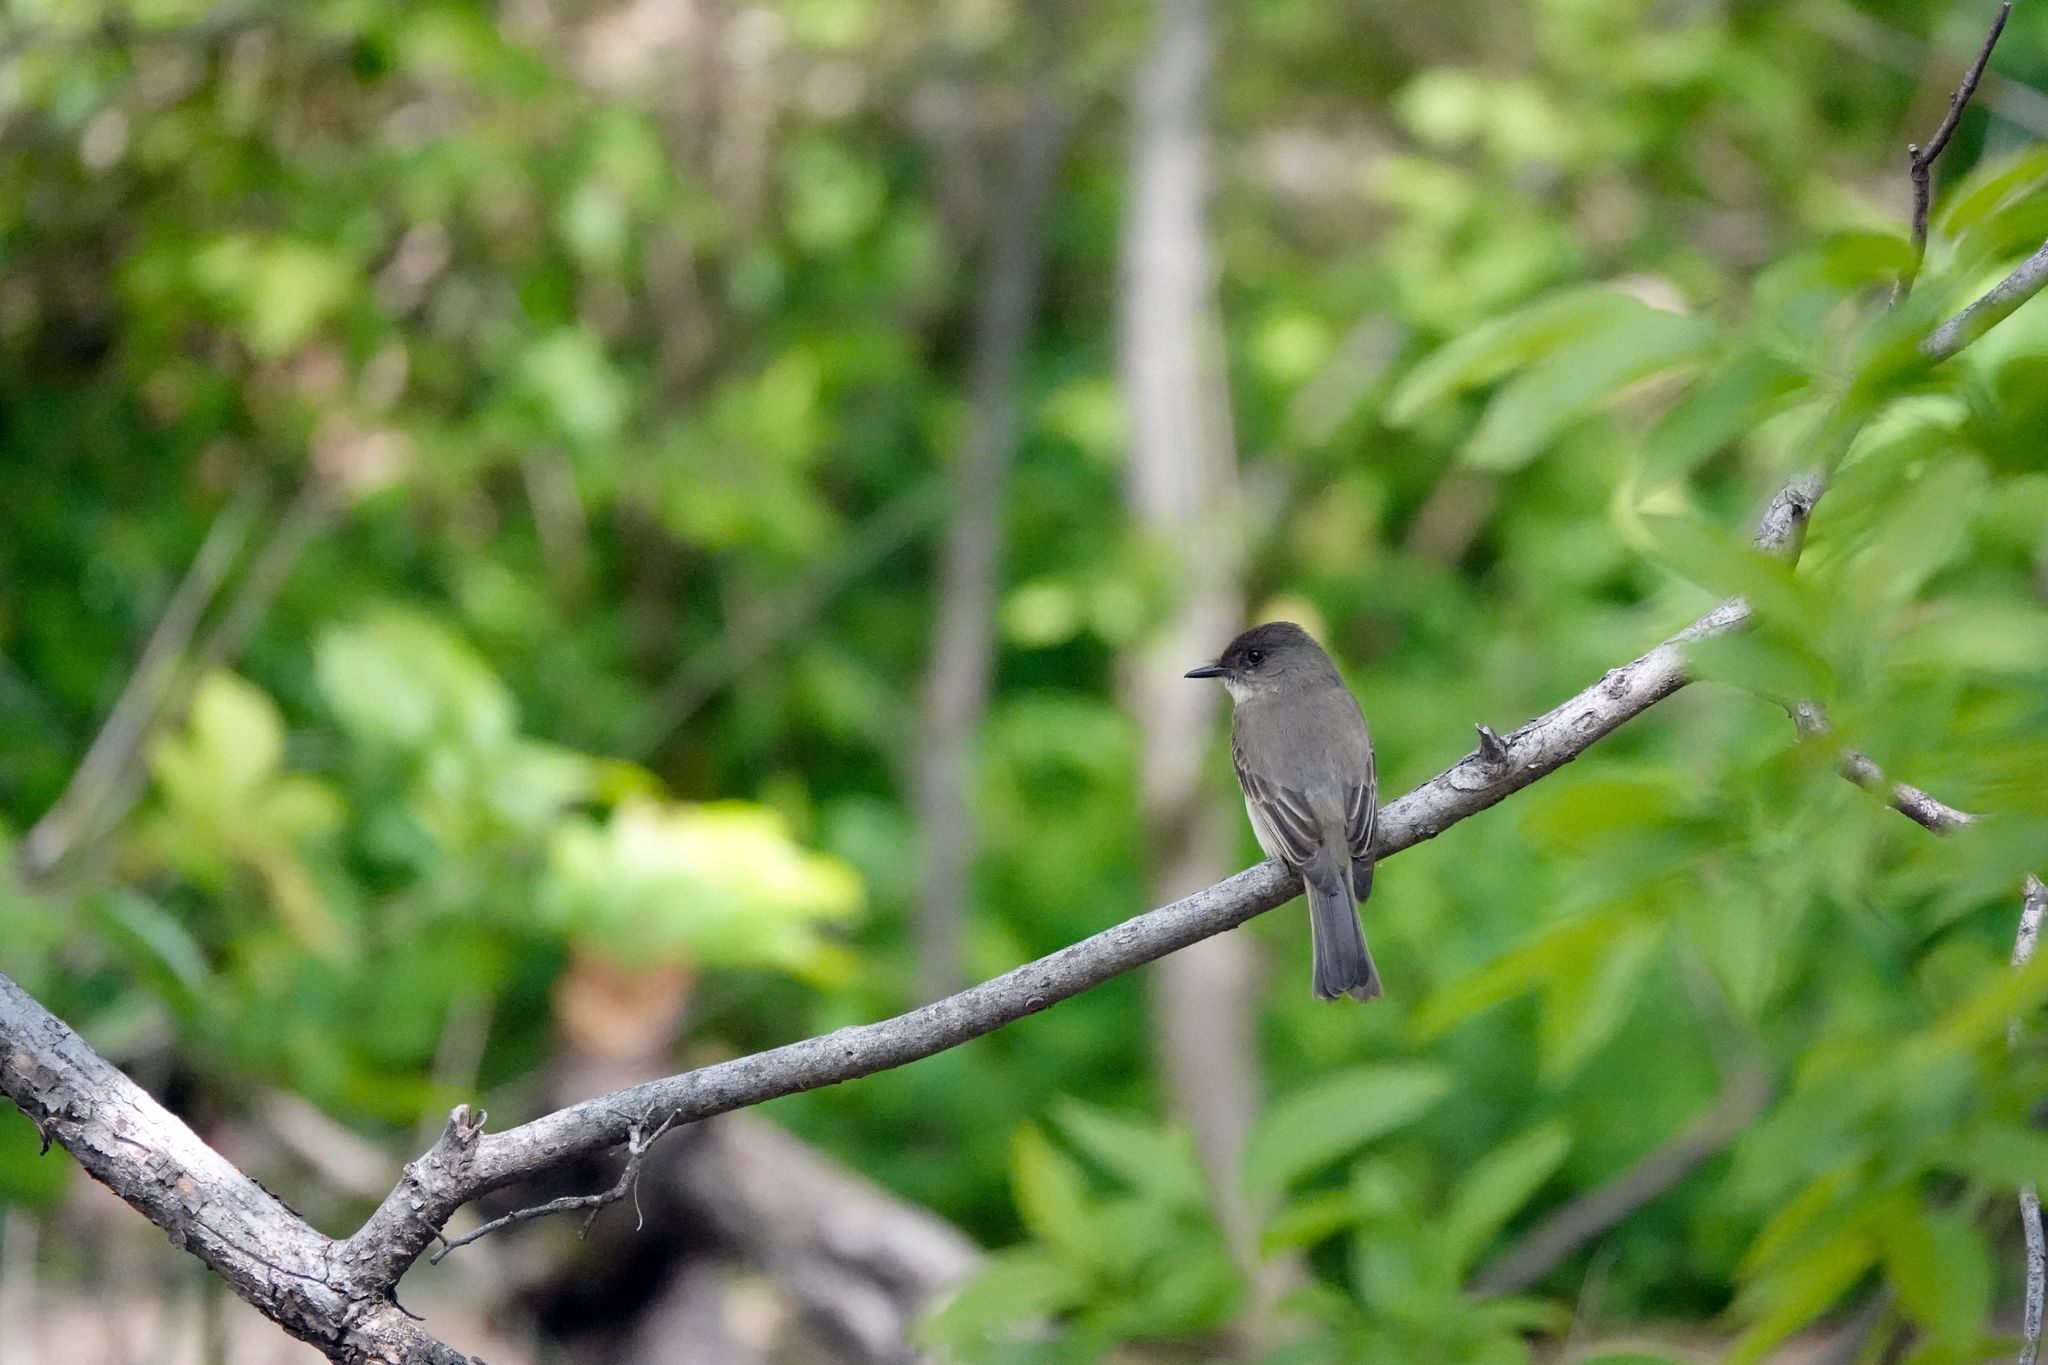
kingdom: Animalia
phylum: Chordata
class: Aves
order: Passeriformes
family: Tyrannidae
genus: Sayornis
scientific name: Sayornis phoebe
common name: Eastern phoebe
